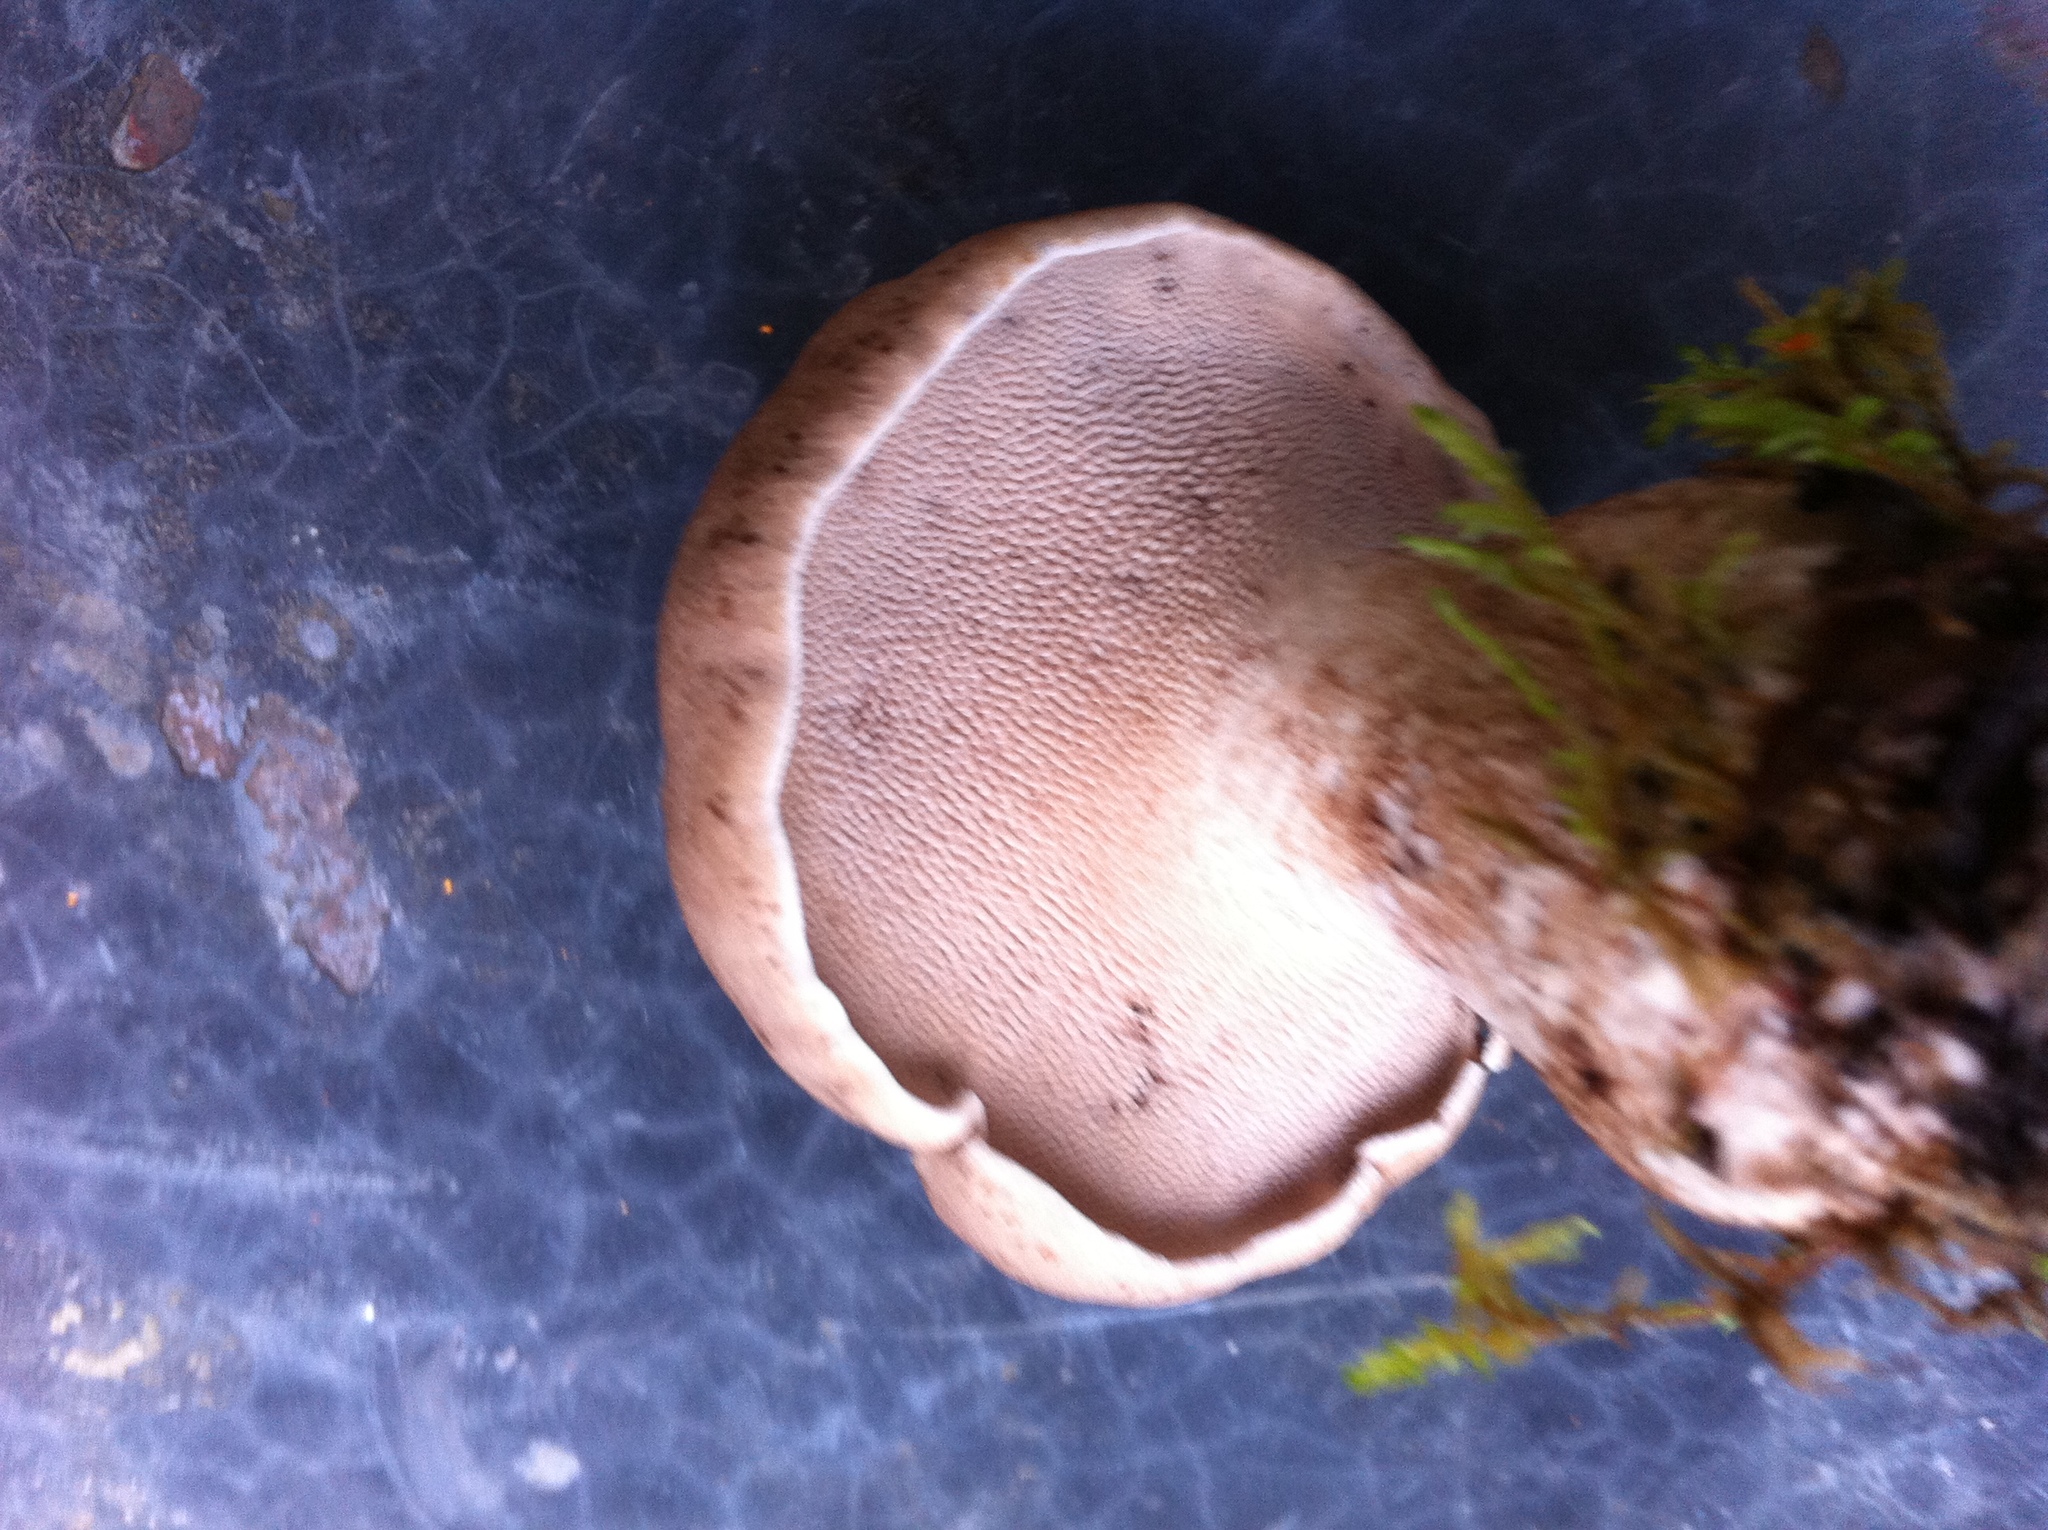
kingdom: Fungi
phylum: Basidiomycota
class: Agaricomycetes
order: Thelephorales
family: Bankeraceae
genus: Sarcodon
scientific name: Sarcodon imbricatus
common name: Shingled hedgehog
